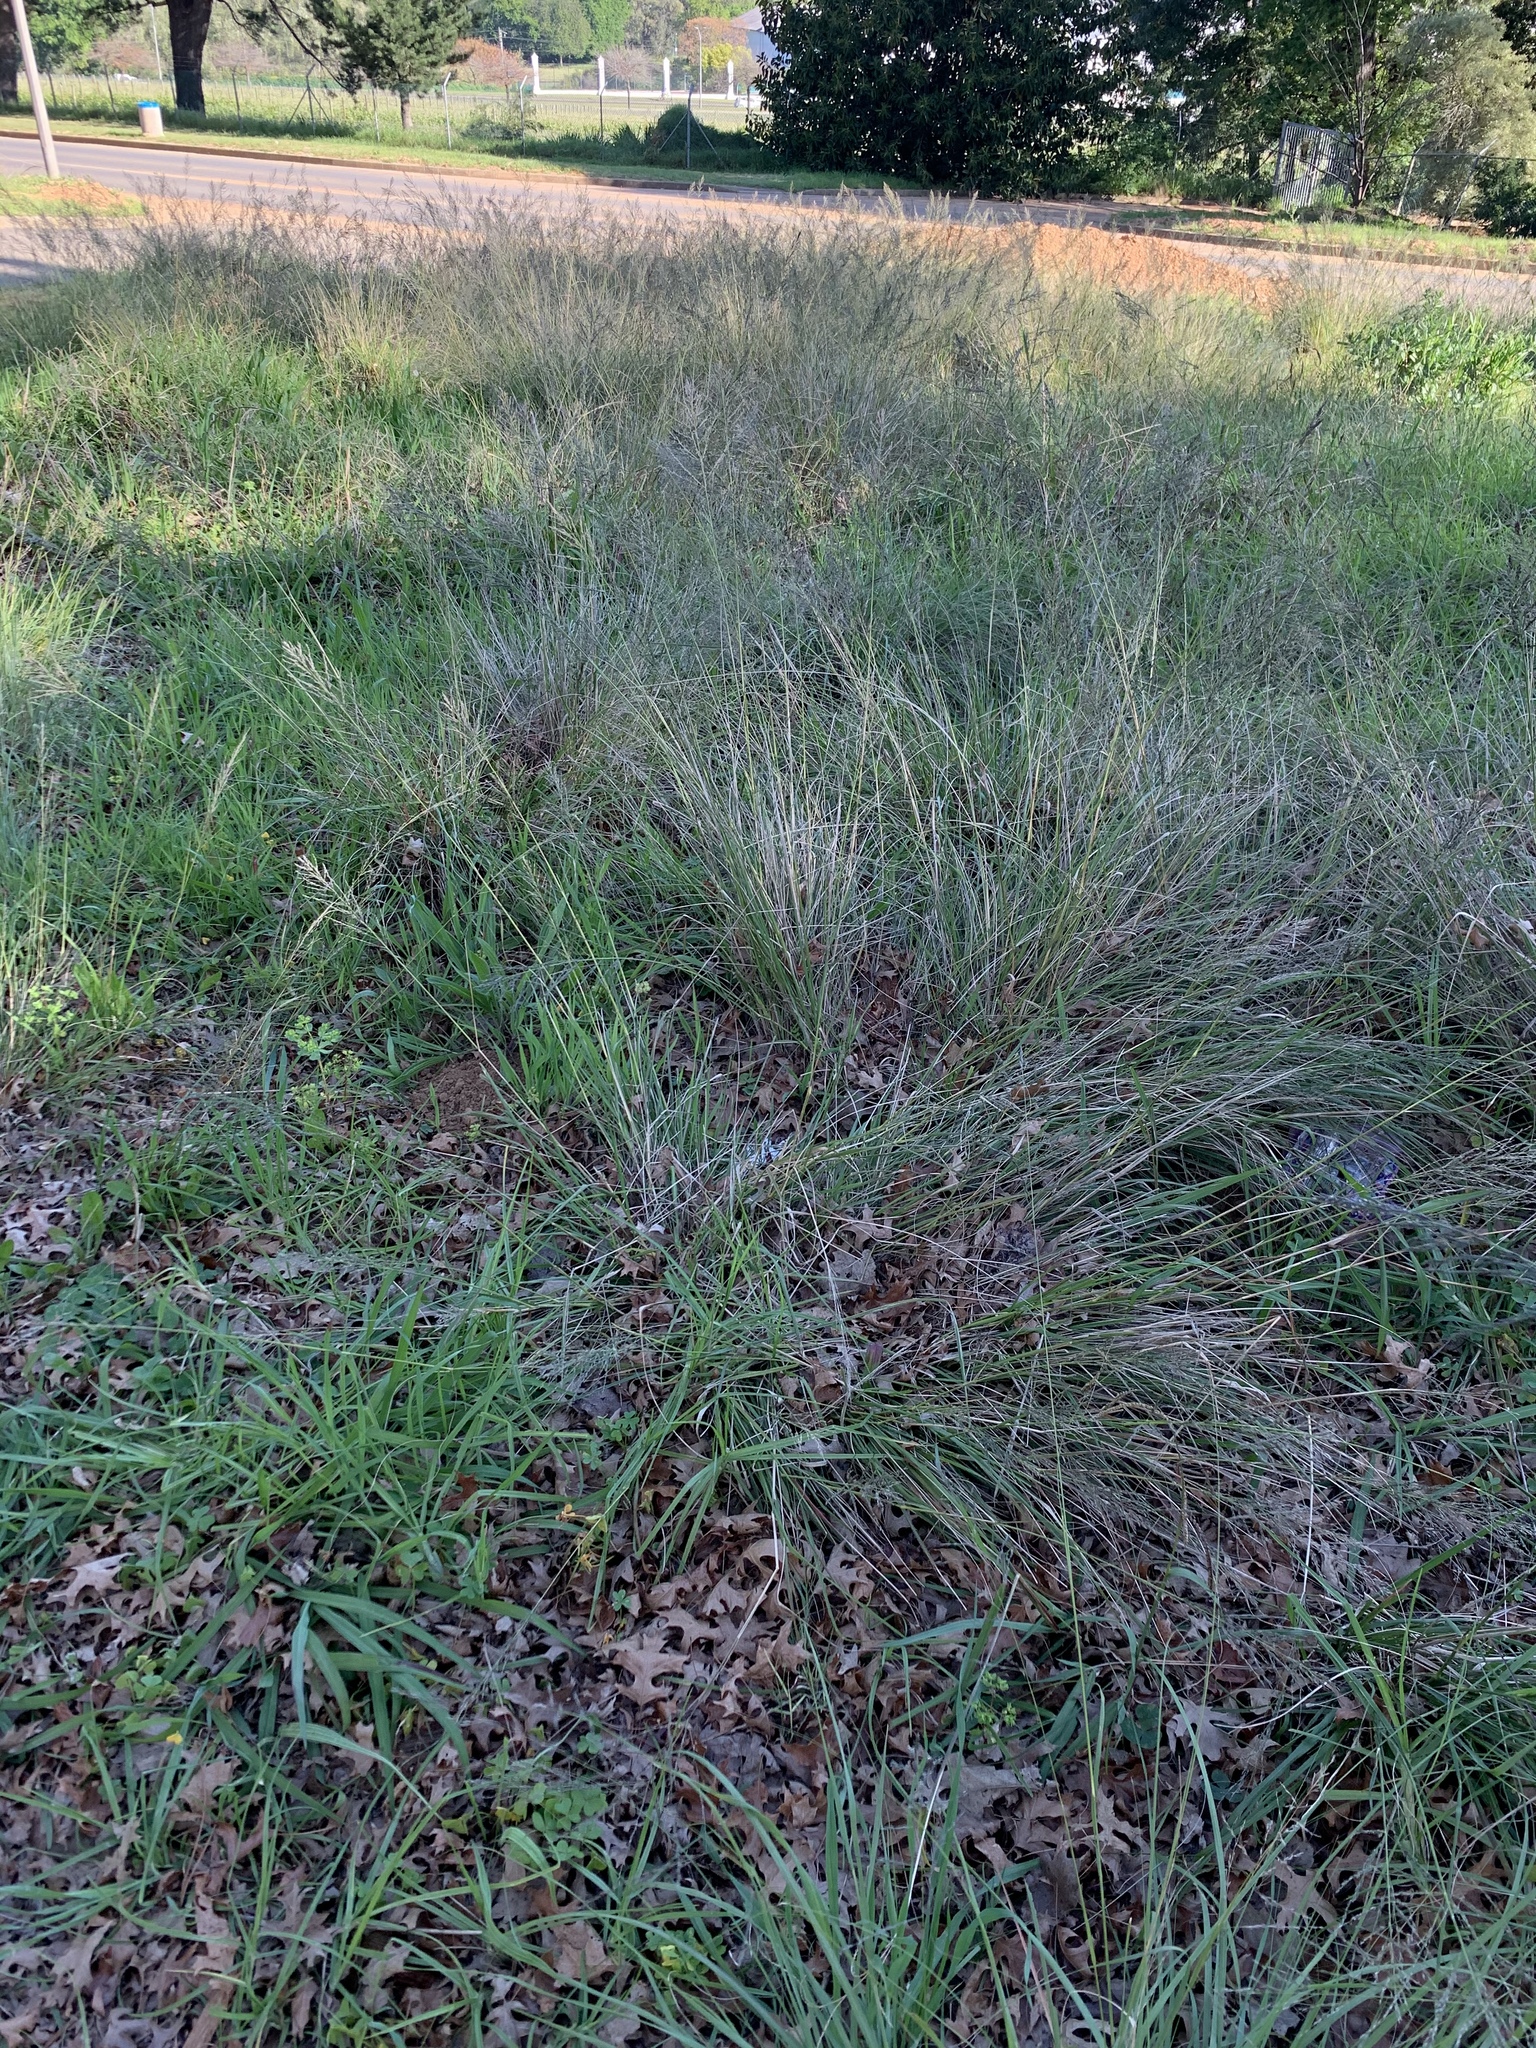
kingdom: Plantae
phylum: Tracheophyta
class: Liliopsida
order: Poales
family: Poaceae
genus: Eragrostis
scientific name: Eragrostis curvula
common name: African love-grass
